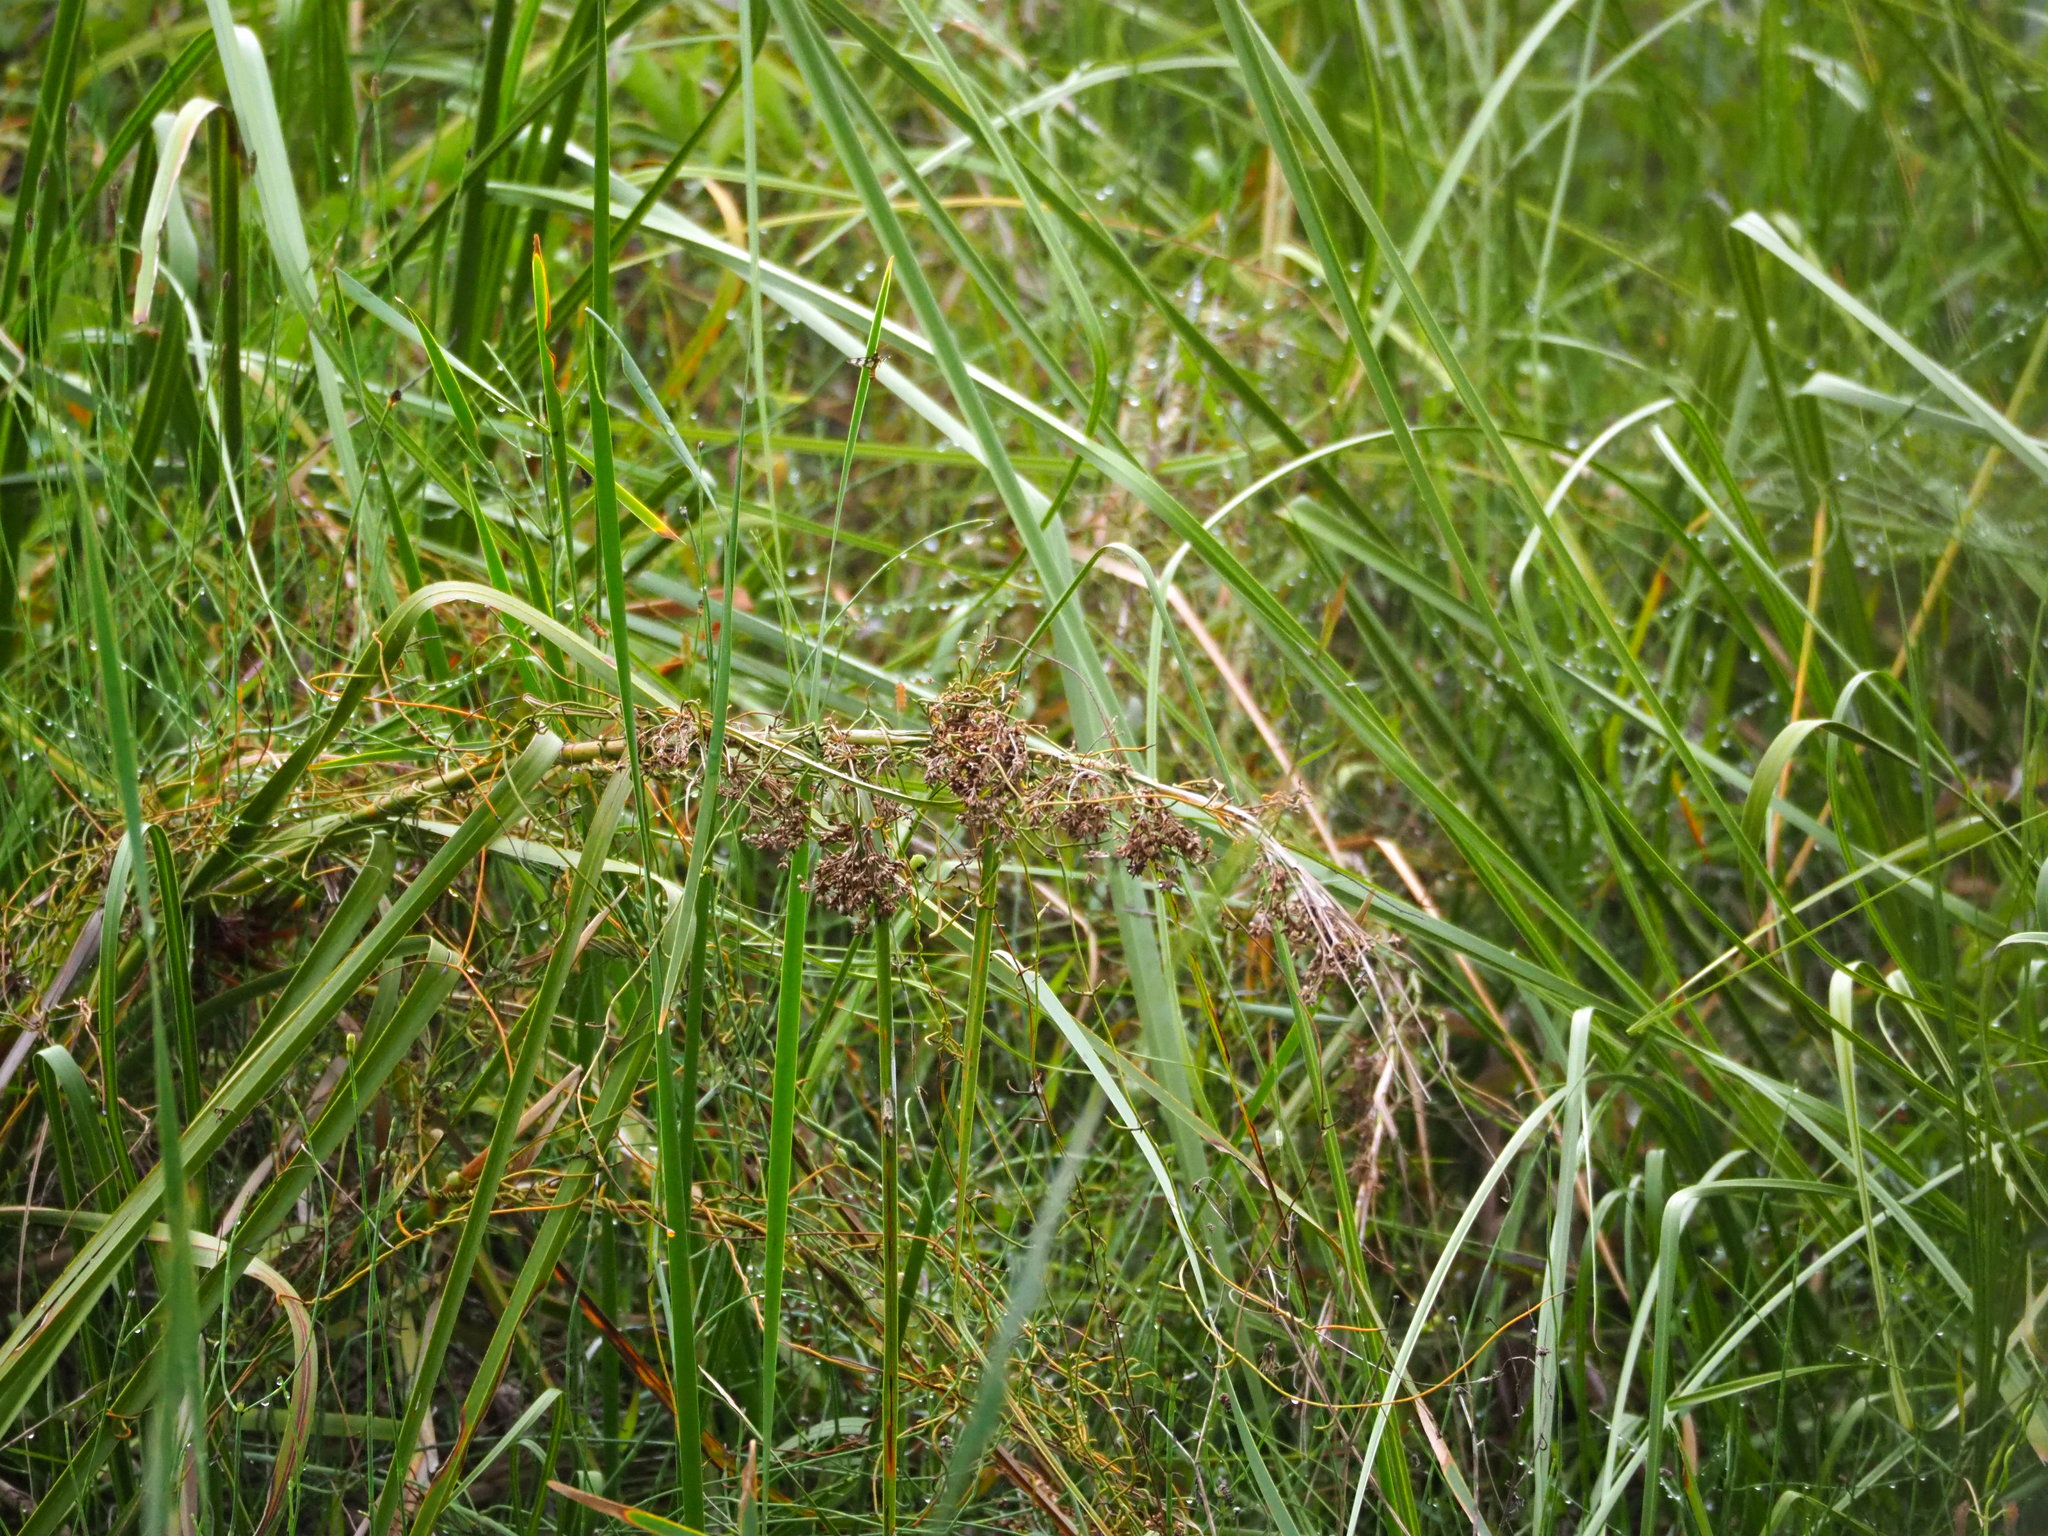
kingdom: Plantae
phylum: Tracheophyta
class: Liliopsida
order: Poales
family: Cyperaceae
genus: Cladium
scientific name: Cladium mariscus
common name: Great fen-sedge
